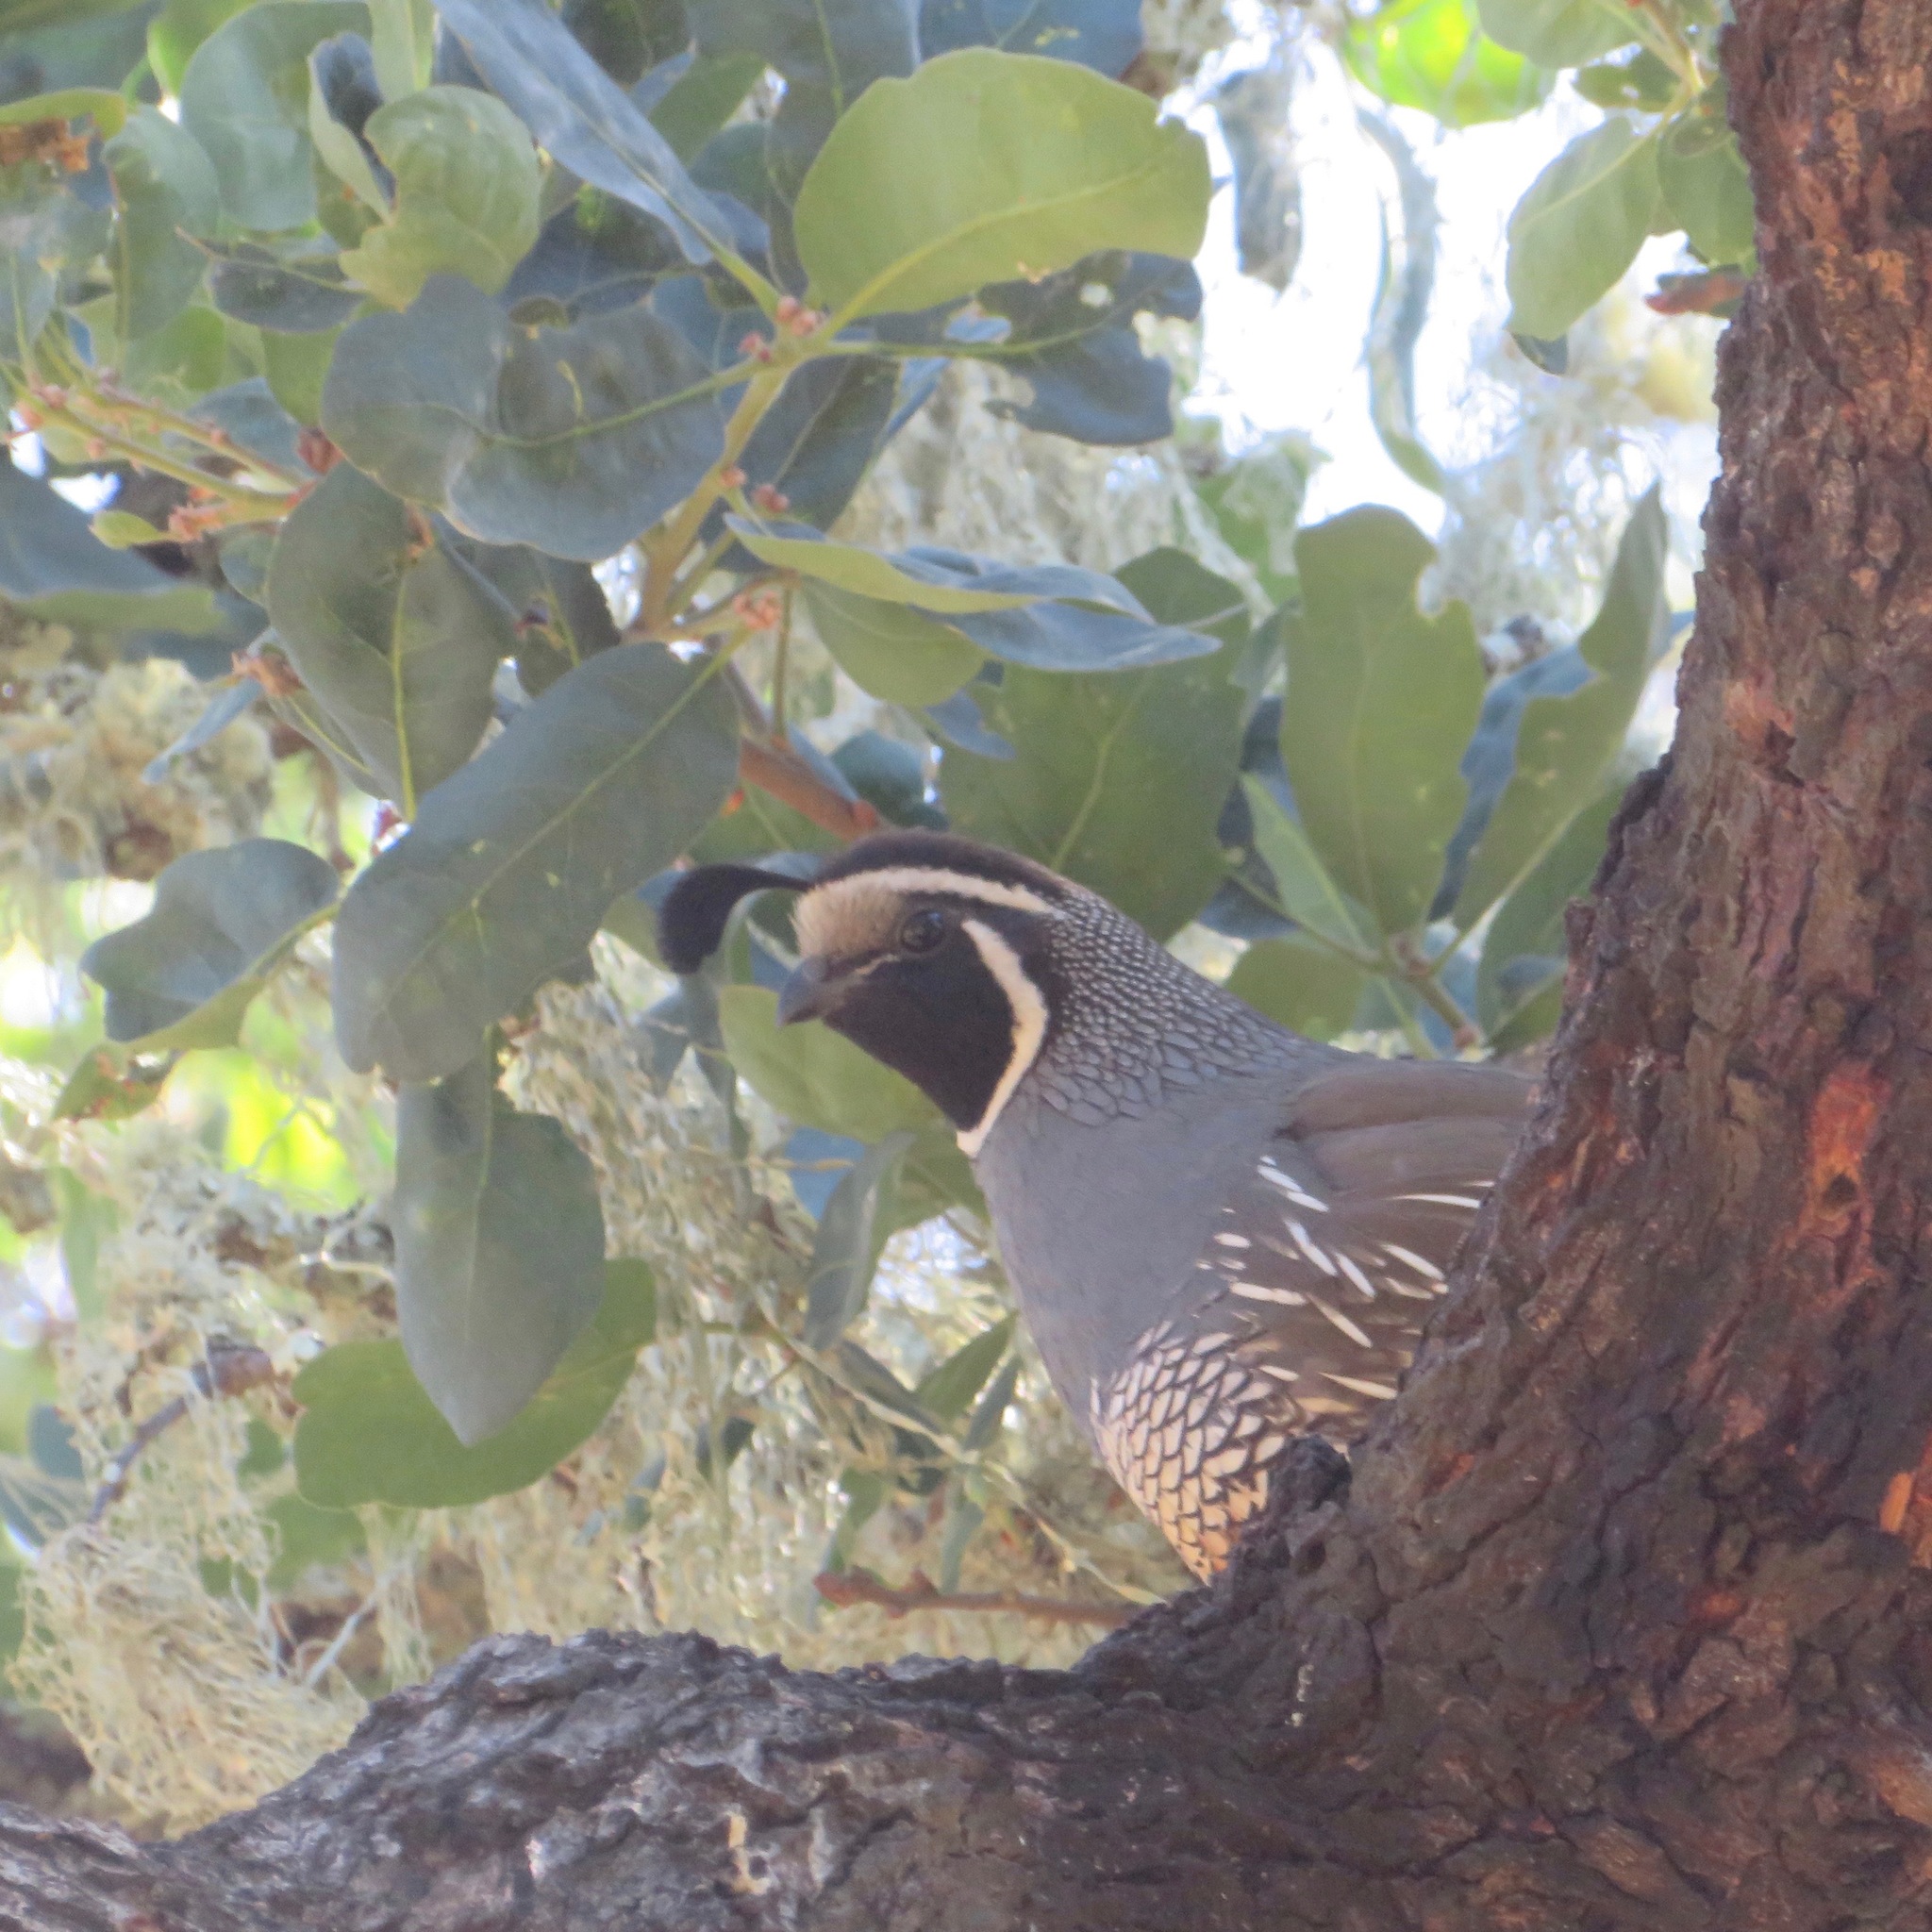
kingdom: Animalia
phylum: Chordata
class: Aves
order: Galliformes
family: Odontophoridae
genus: Callipepla
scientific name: Callipepla californica
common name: California quail
